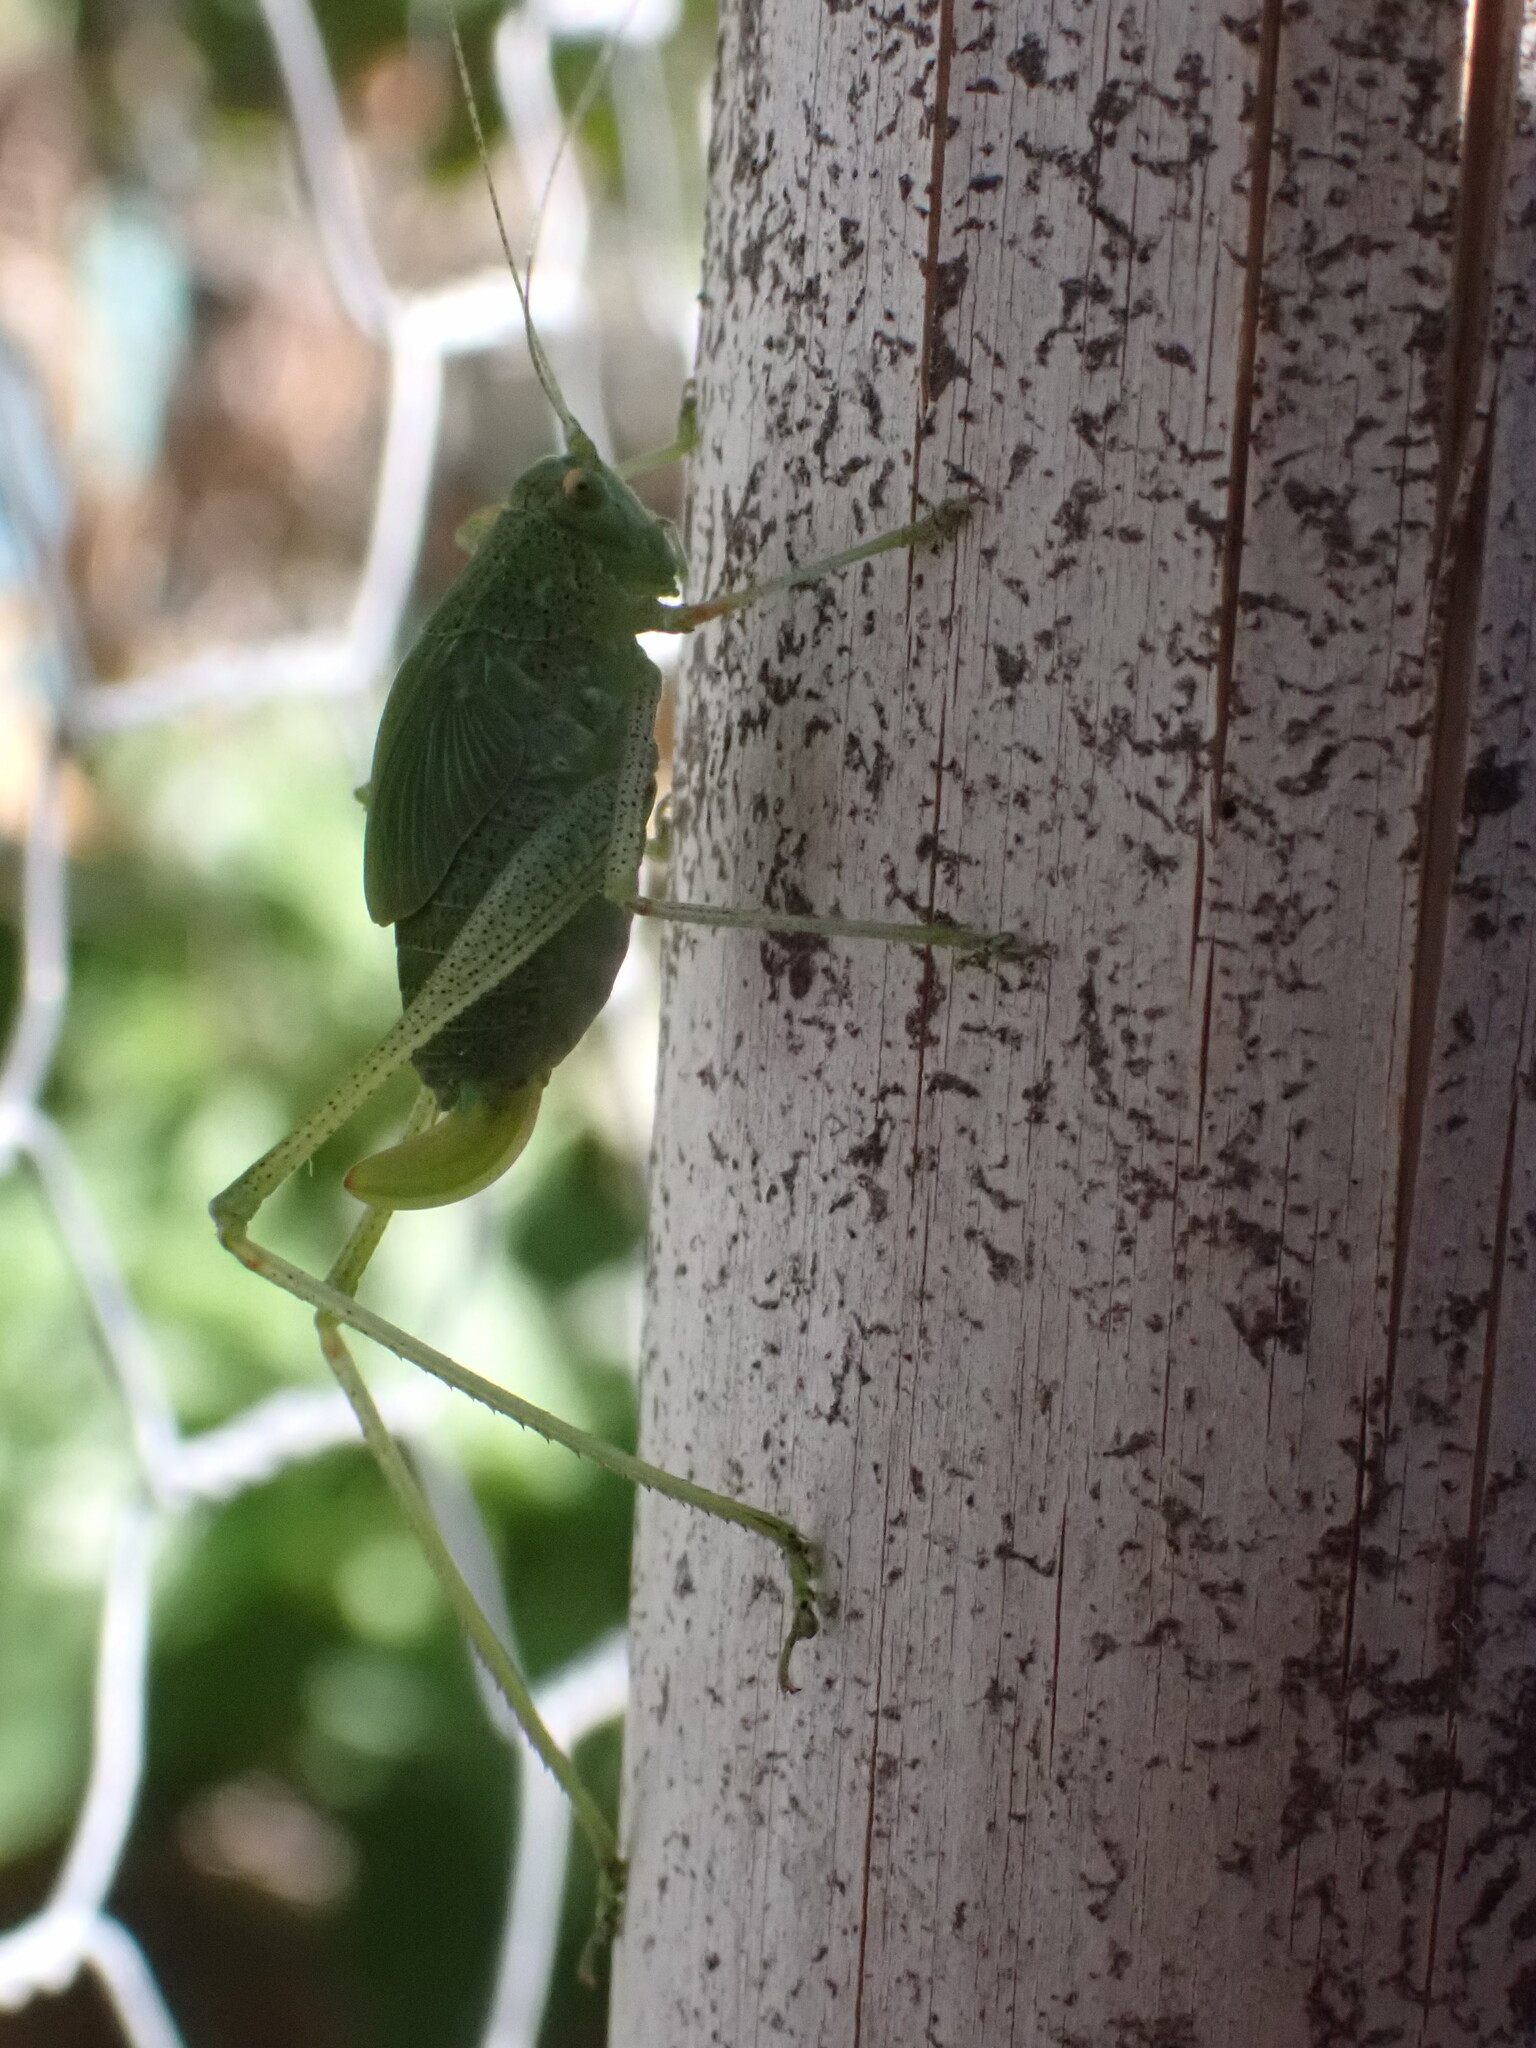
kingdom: Animalia
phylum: Arthropoda
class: Insecta
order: Orthoptera
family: Tettigoniidae
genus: Phaneroptera
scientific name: Phaneroptera nana
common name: Southern sickle bush-cricket
